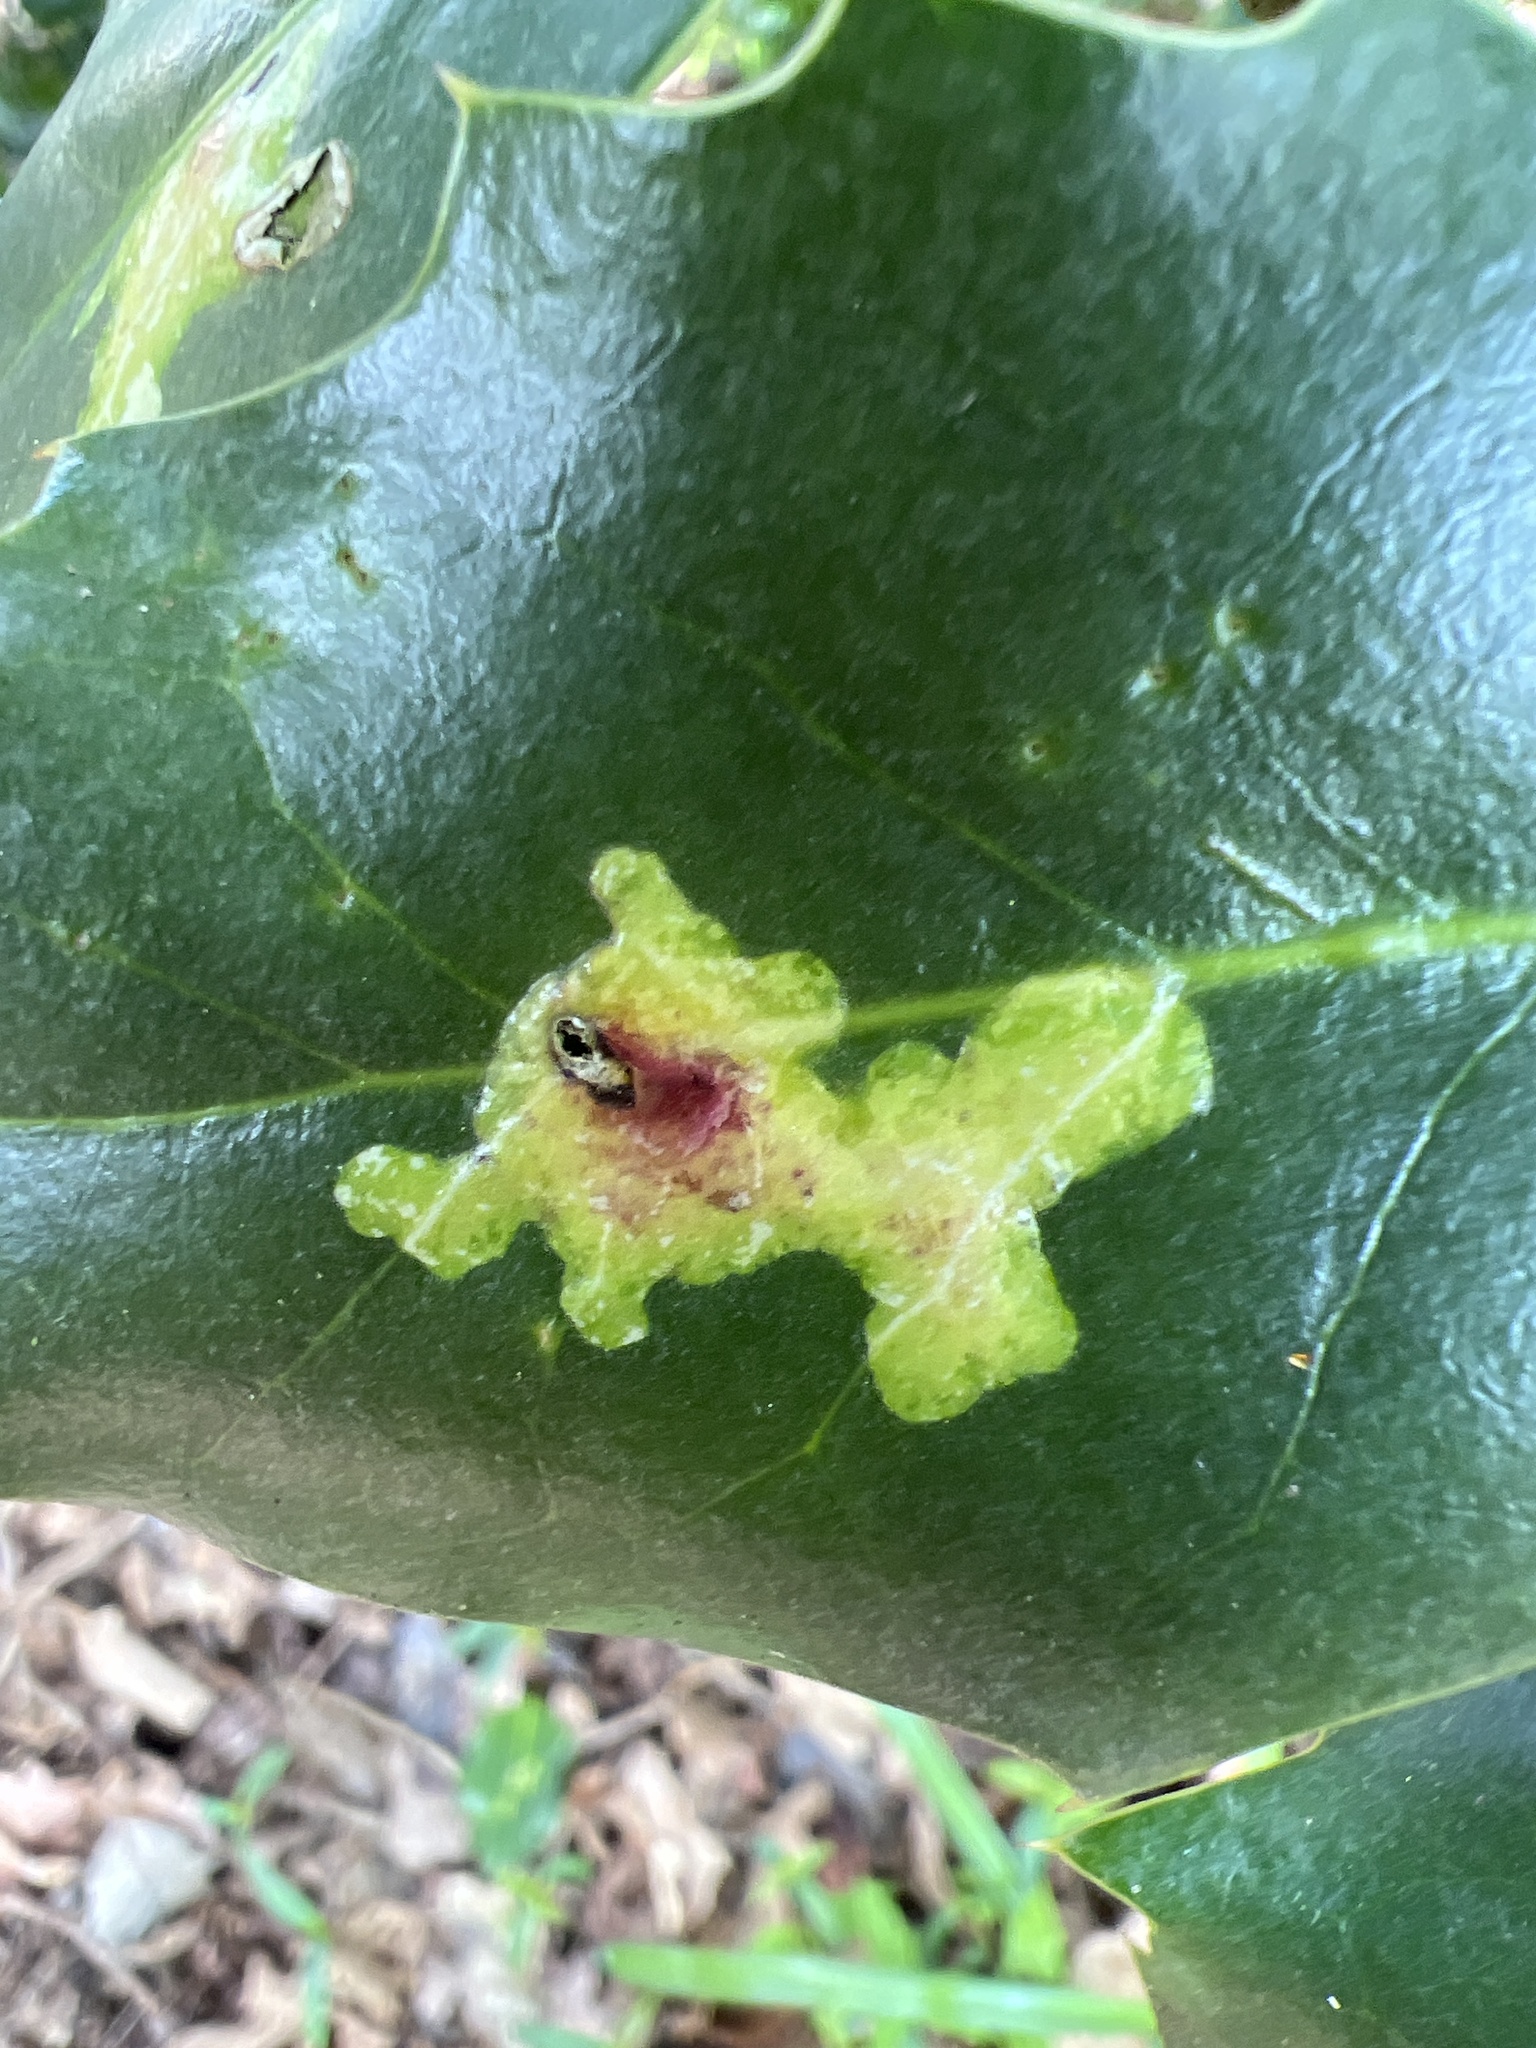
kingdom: Animalia
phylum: Arthropoda
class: Insecta
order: Diptera
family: Agromyzidae
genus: Phytomyza
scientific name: Phytomyza ilicis
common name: Holly leafminer
